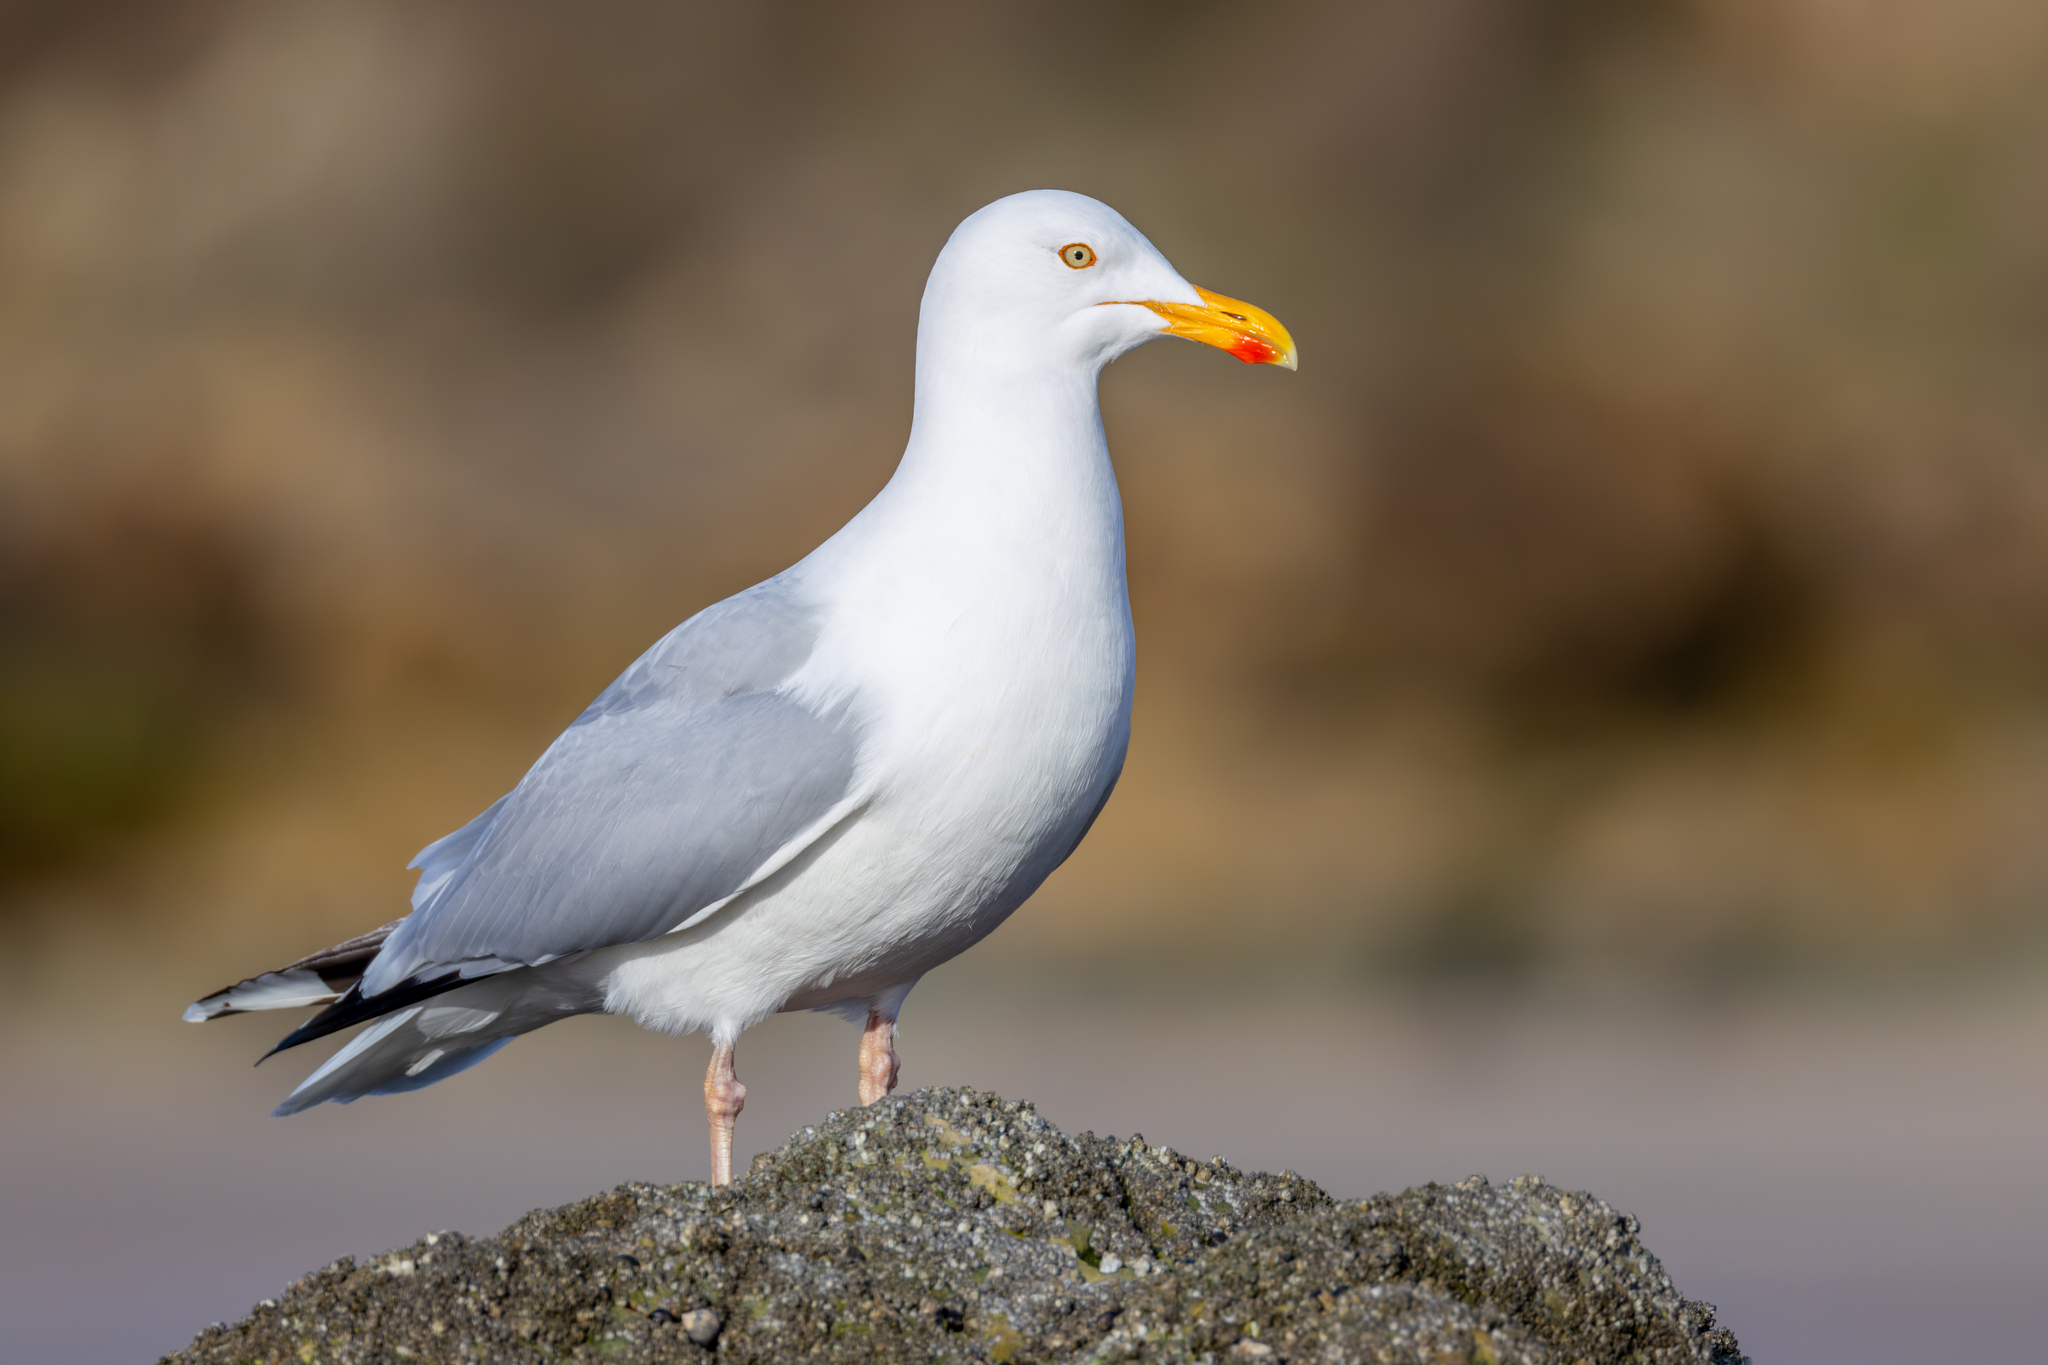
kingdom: Animalia
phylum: Chordata
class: Aves
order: Charadriiformes
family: Laridae
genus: Larus
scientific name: Larus argentatus
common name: Herring gull
